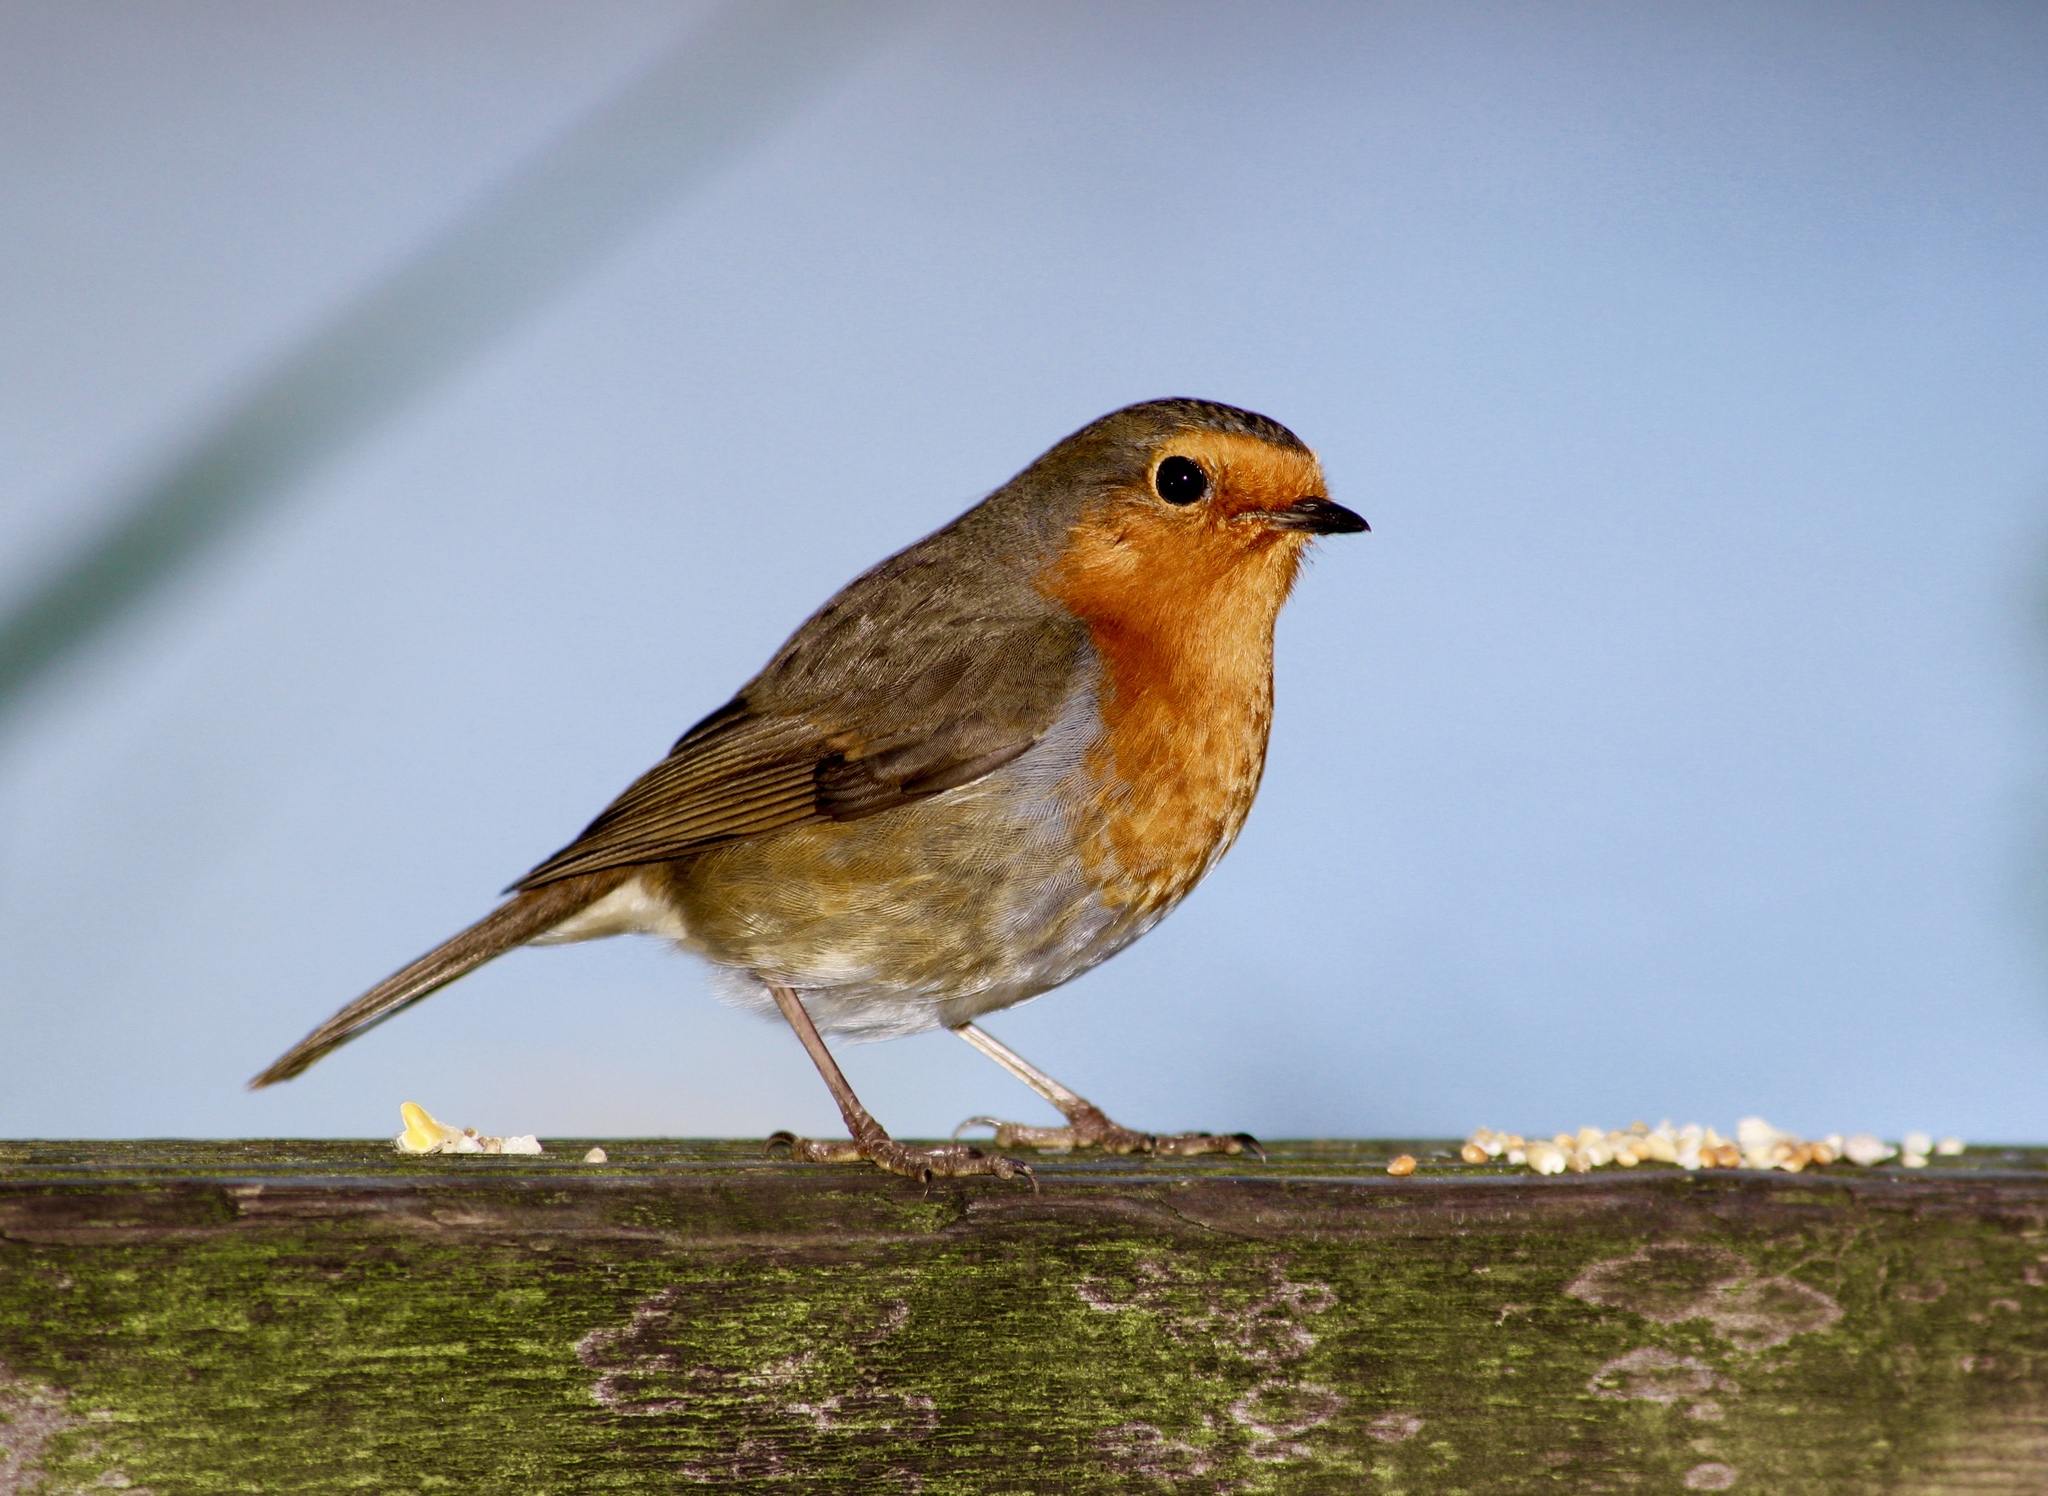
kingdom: Animalia
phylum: Chordata
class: Aves
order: Passeriformes
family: Muscicapidae
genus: Erithacus
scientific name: Erithacus rubecula
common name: European robin
